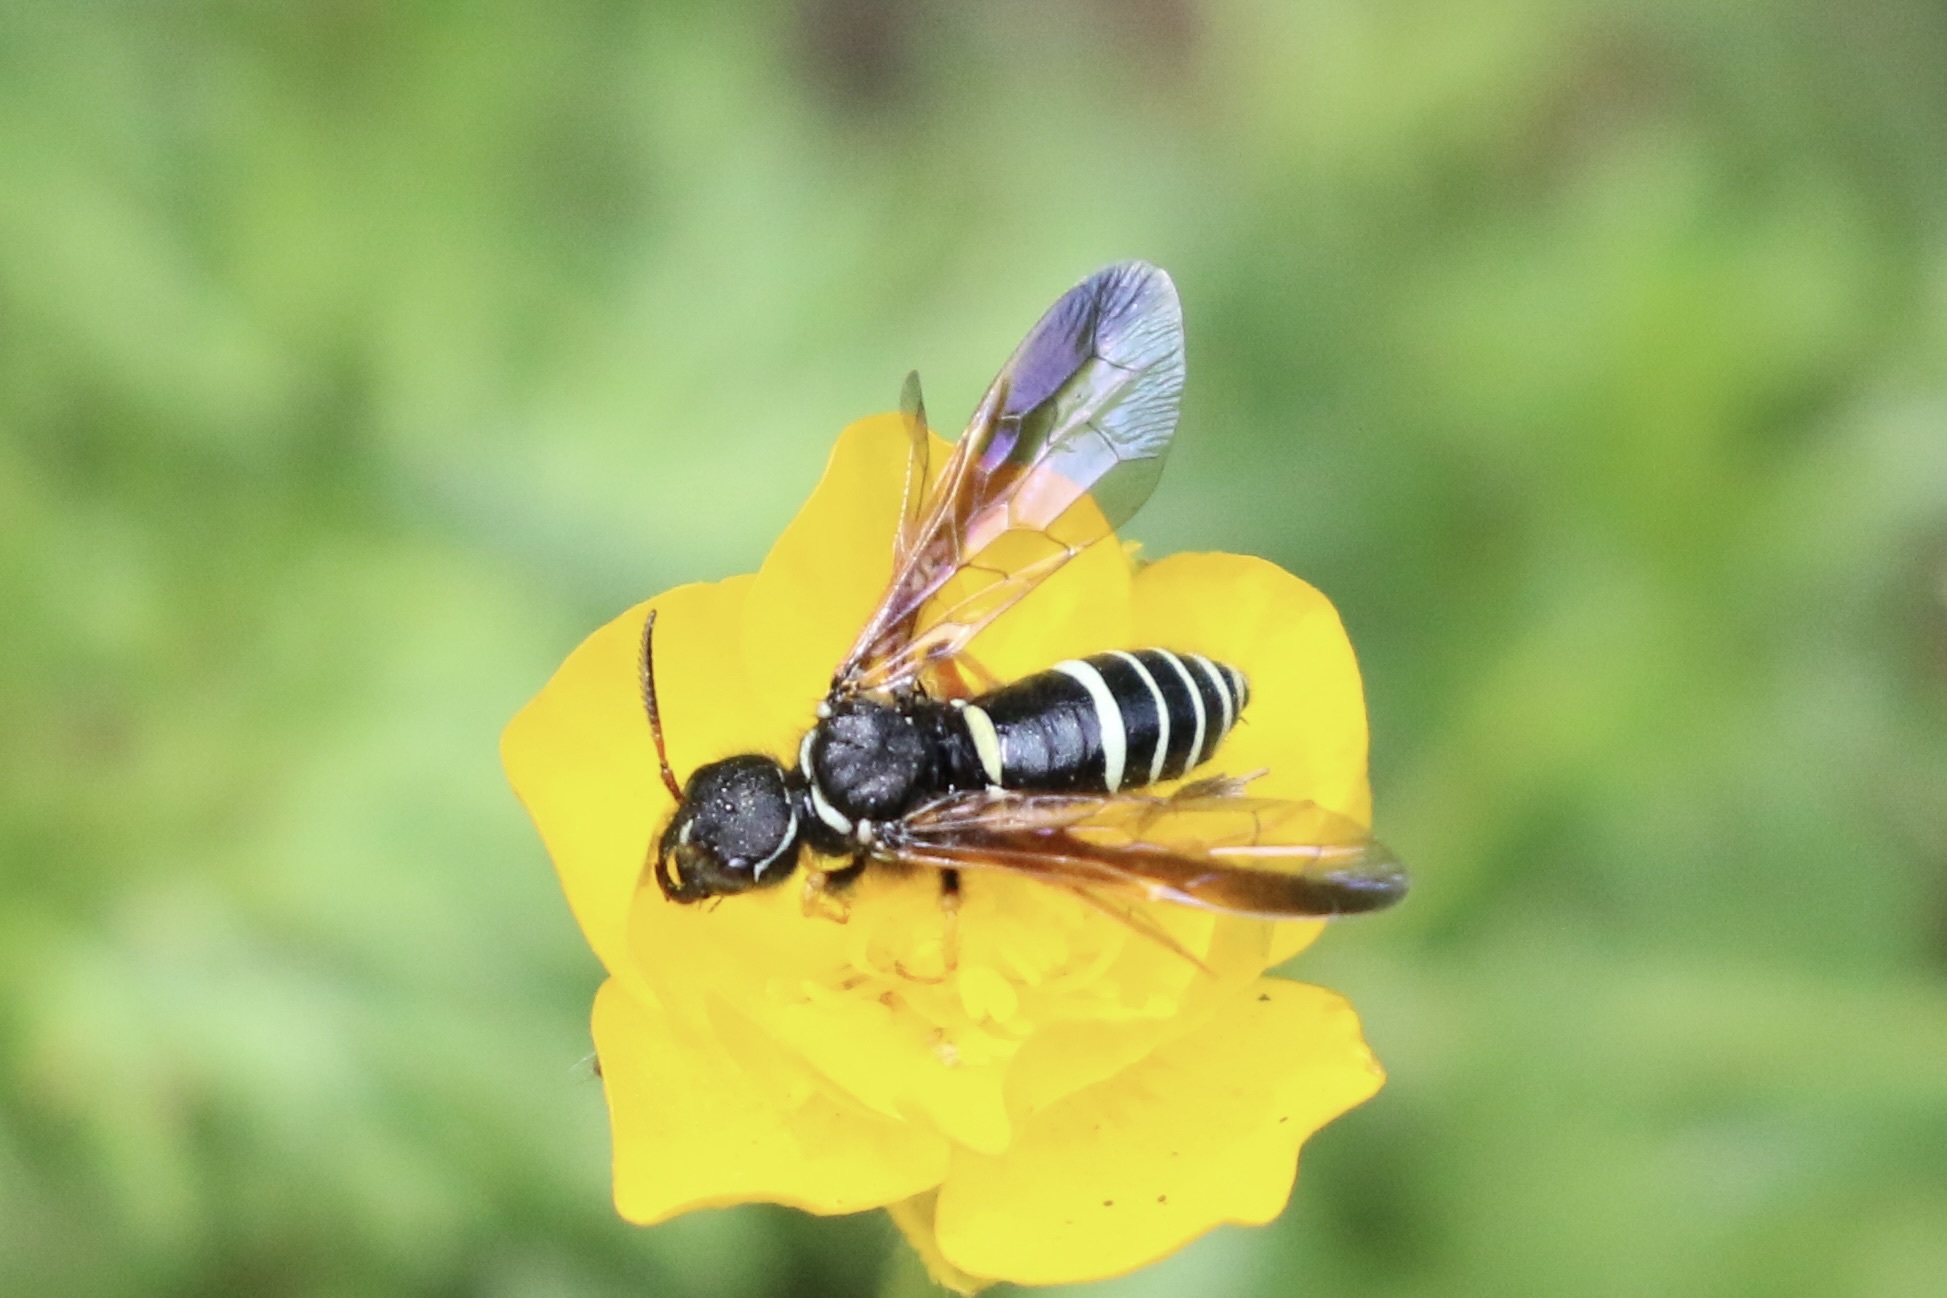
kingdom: Animalia
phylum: Arthropoda
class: Insecta
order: Hymenoptera
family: Megalodontesidae
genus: Megalodontes
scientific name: Megalodontes cephalotes
